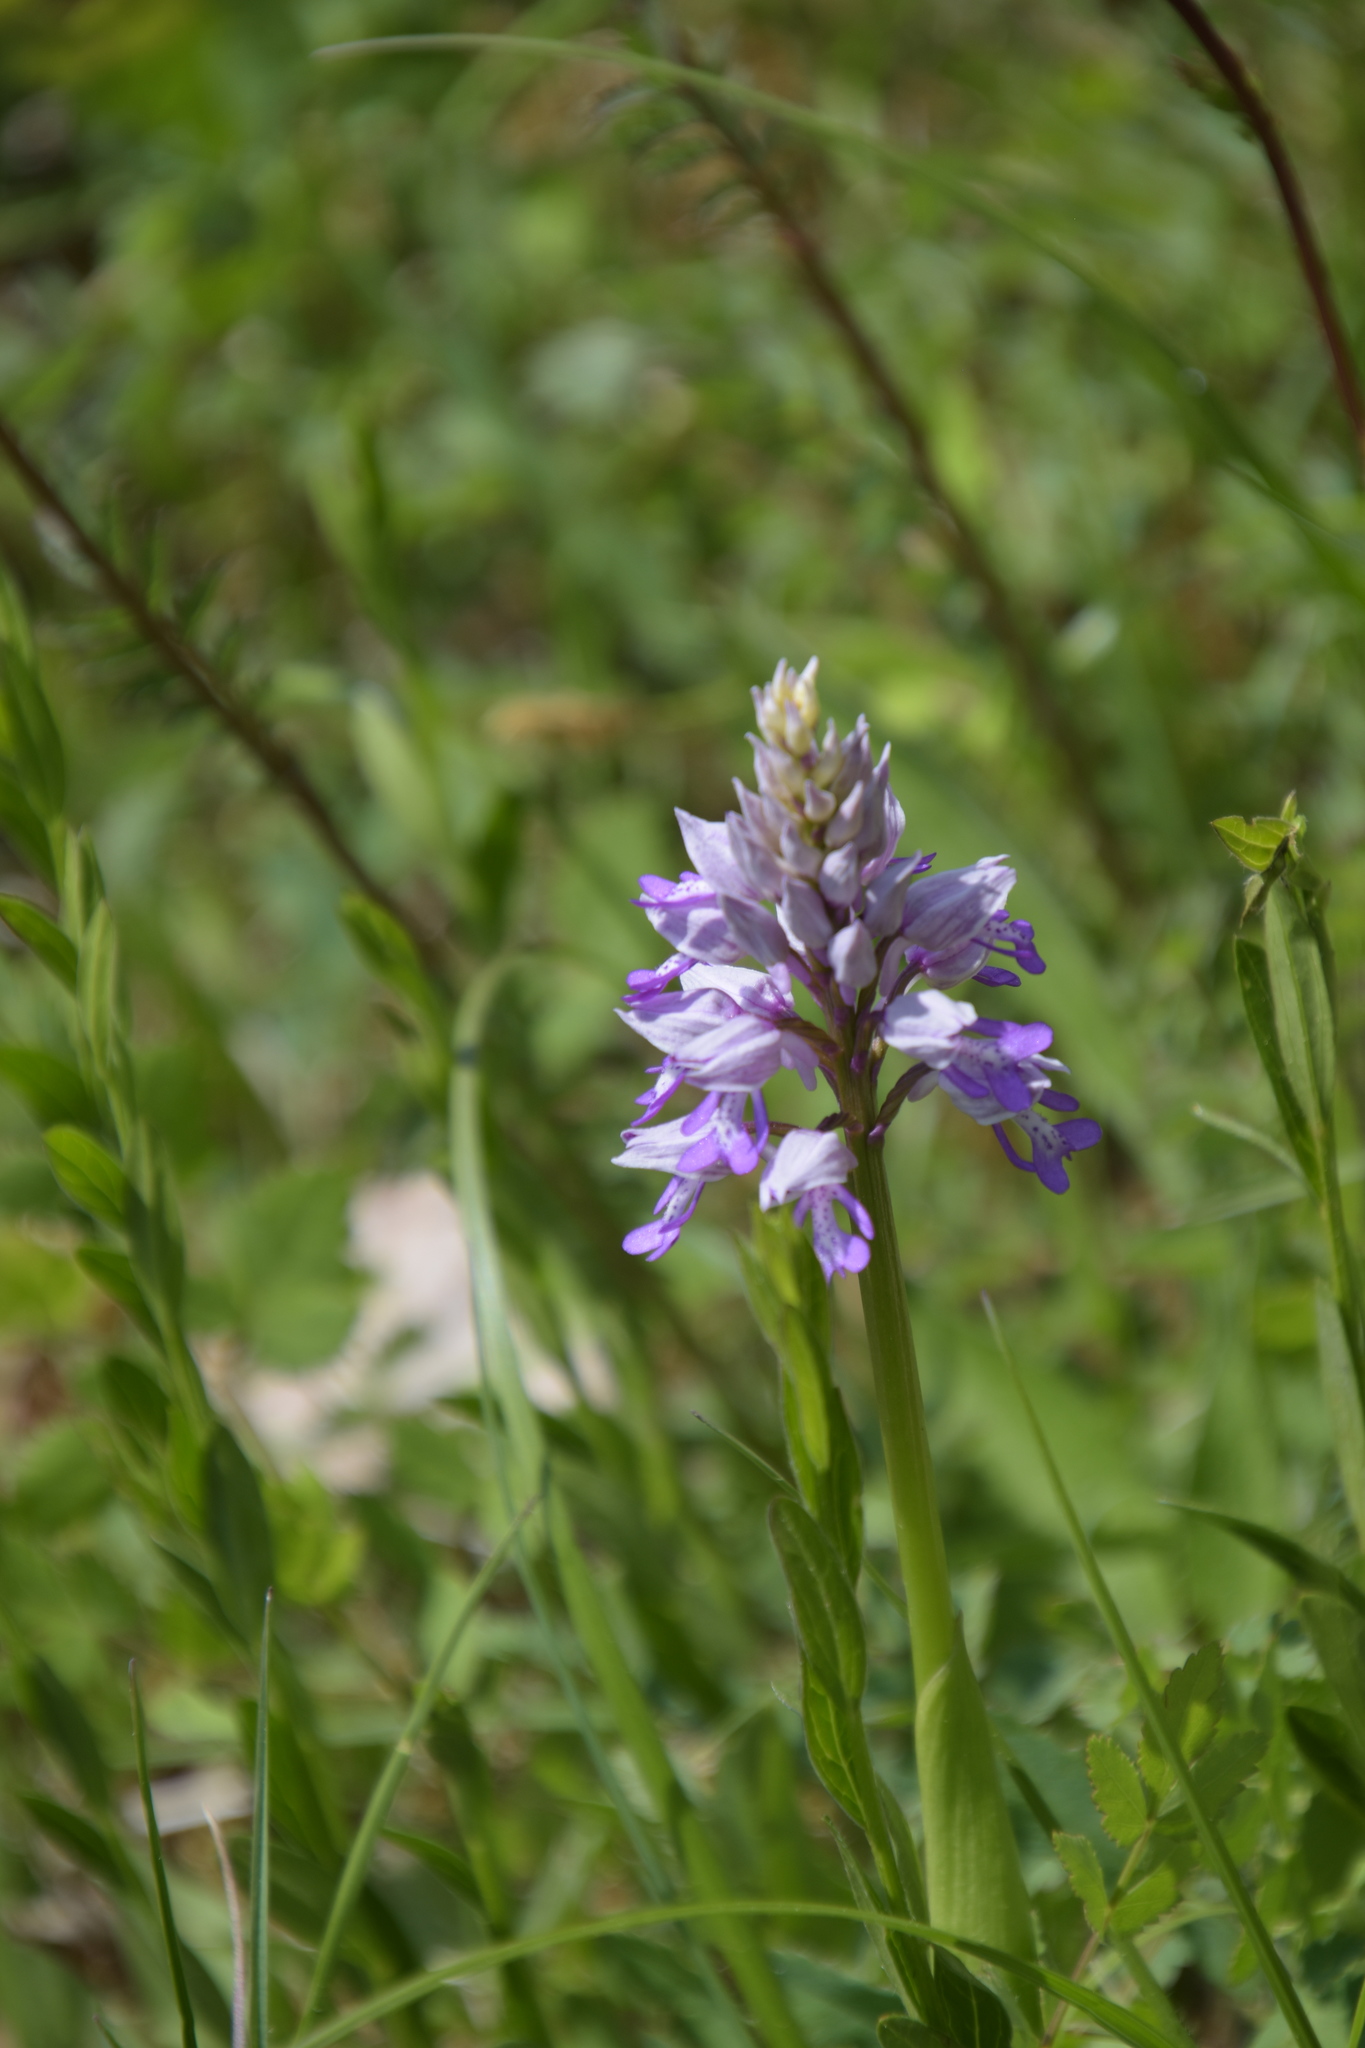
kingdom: Plantae
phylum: Tracheophyta
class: Liliopsida
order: Asparagales
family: Orchidaceae
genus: Orchis
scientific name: Orchis militaris
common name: Military orchid
